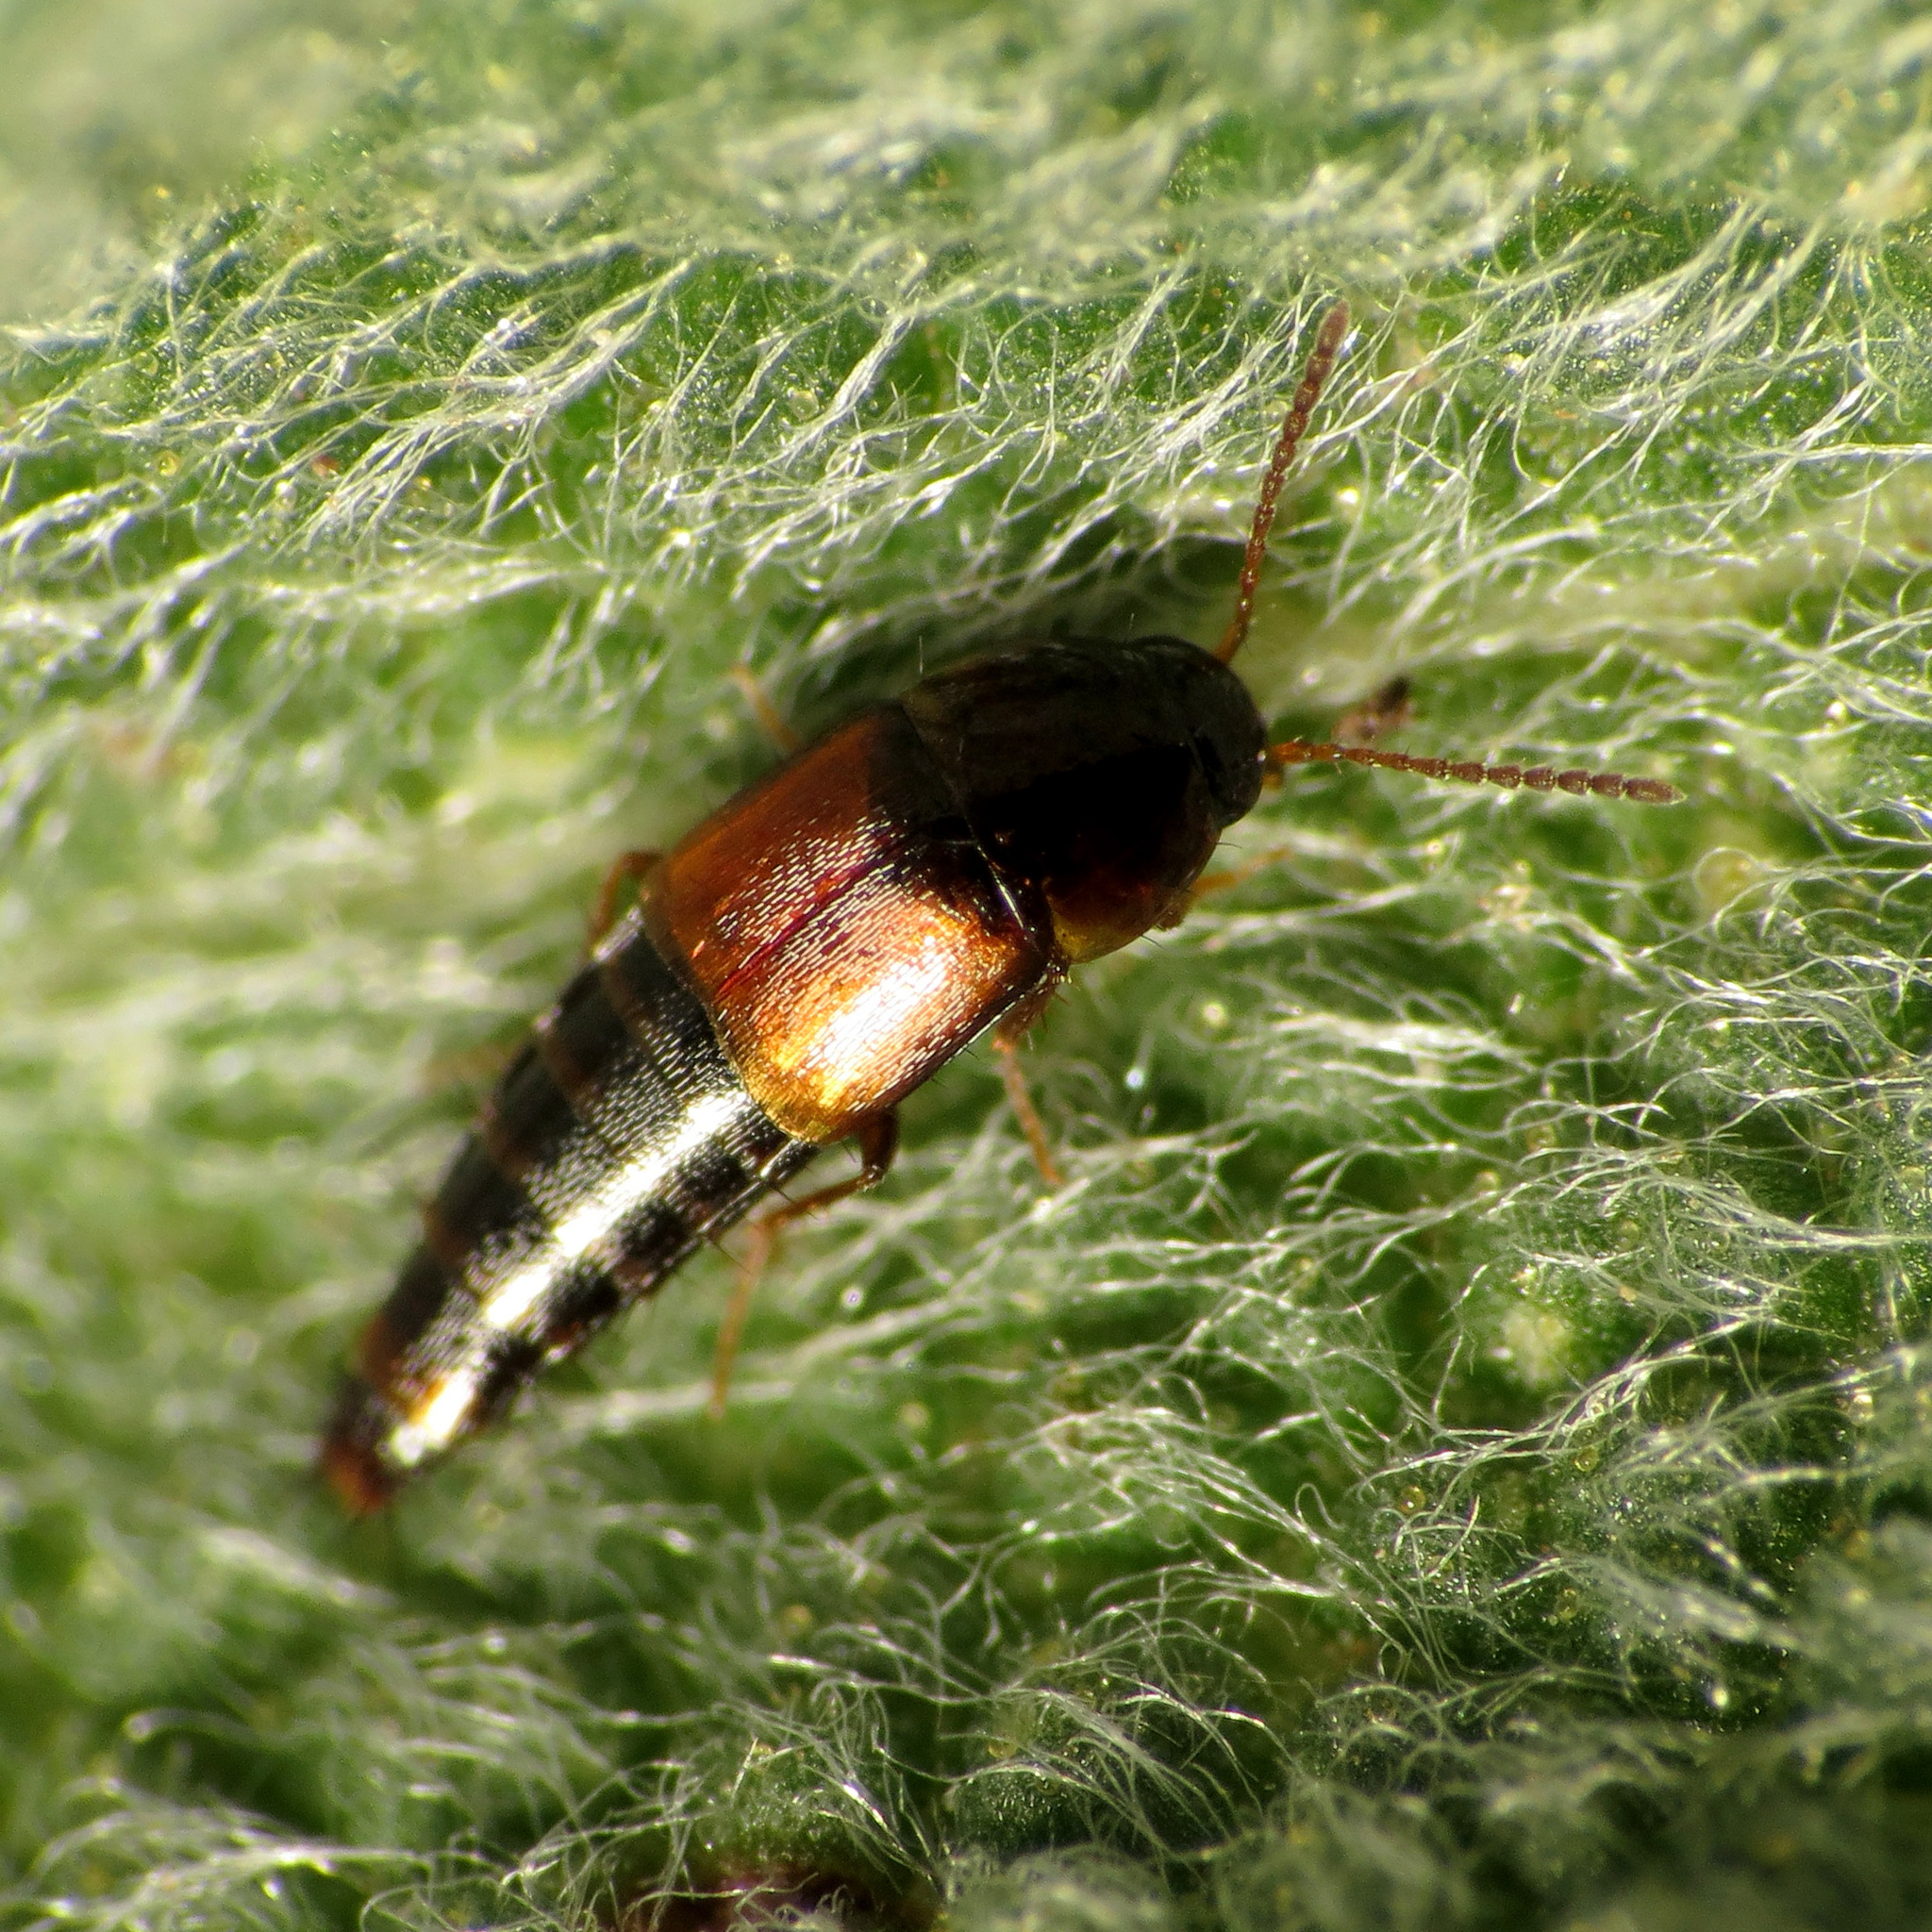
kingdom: Animalia
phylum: Arthropoda
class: Insecta
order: Coleoptera
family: Staphylinidae
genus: Palporus
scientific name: Palporus nitidulus
